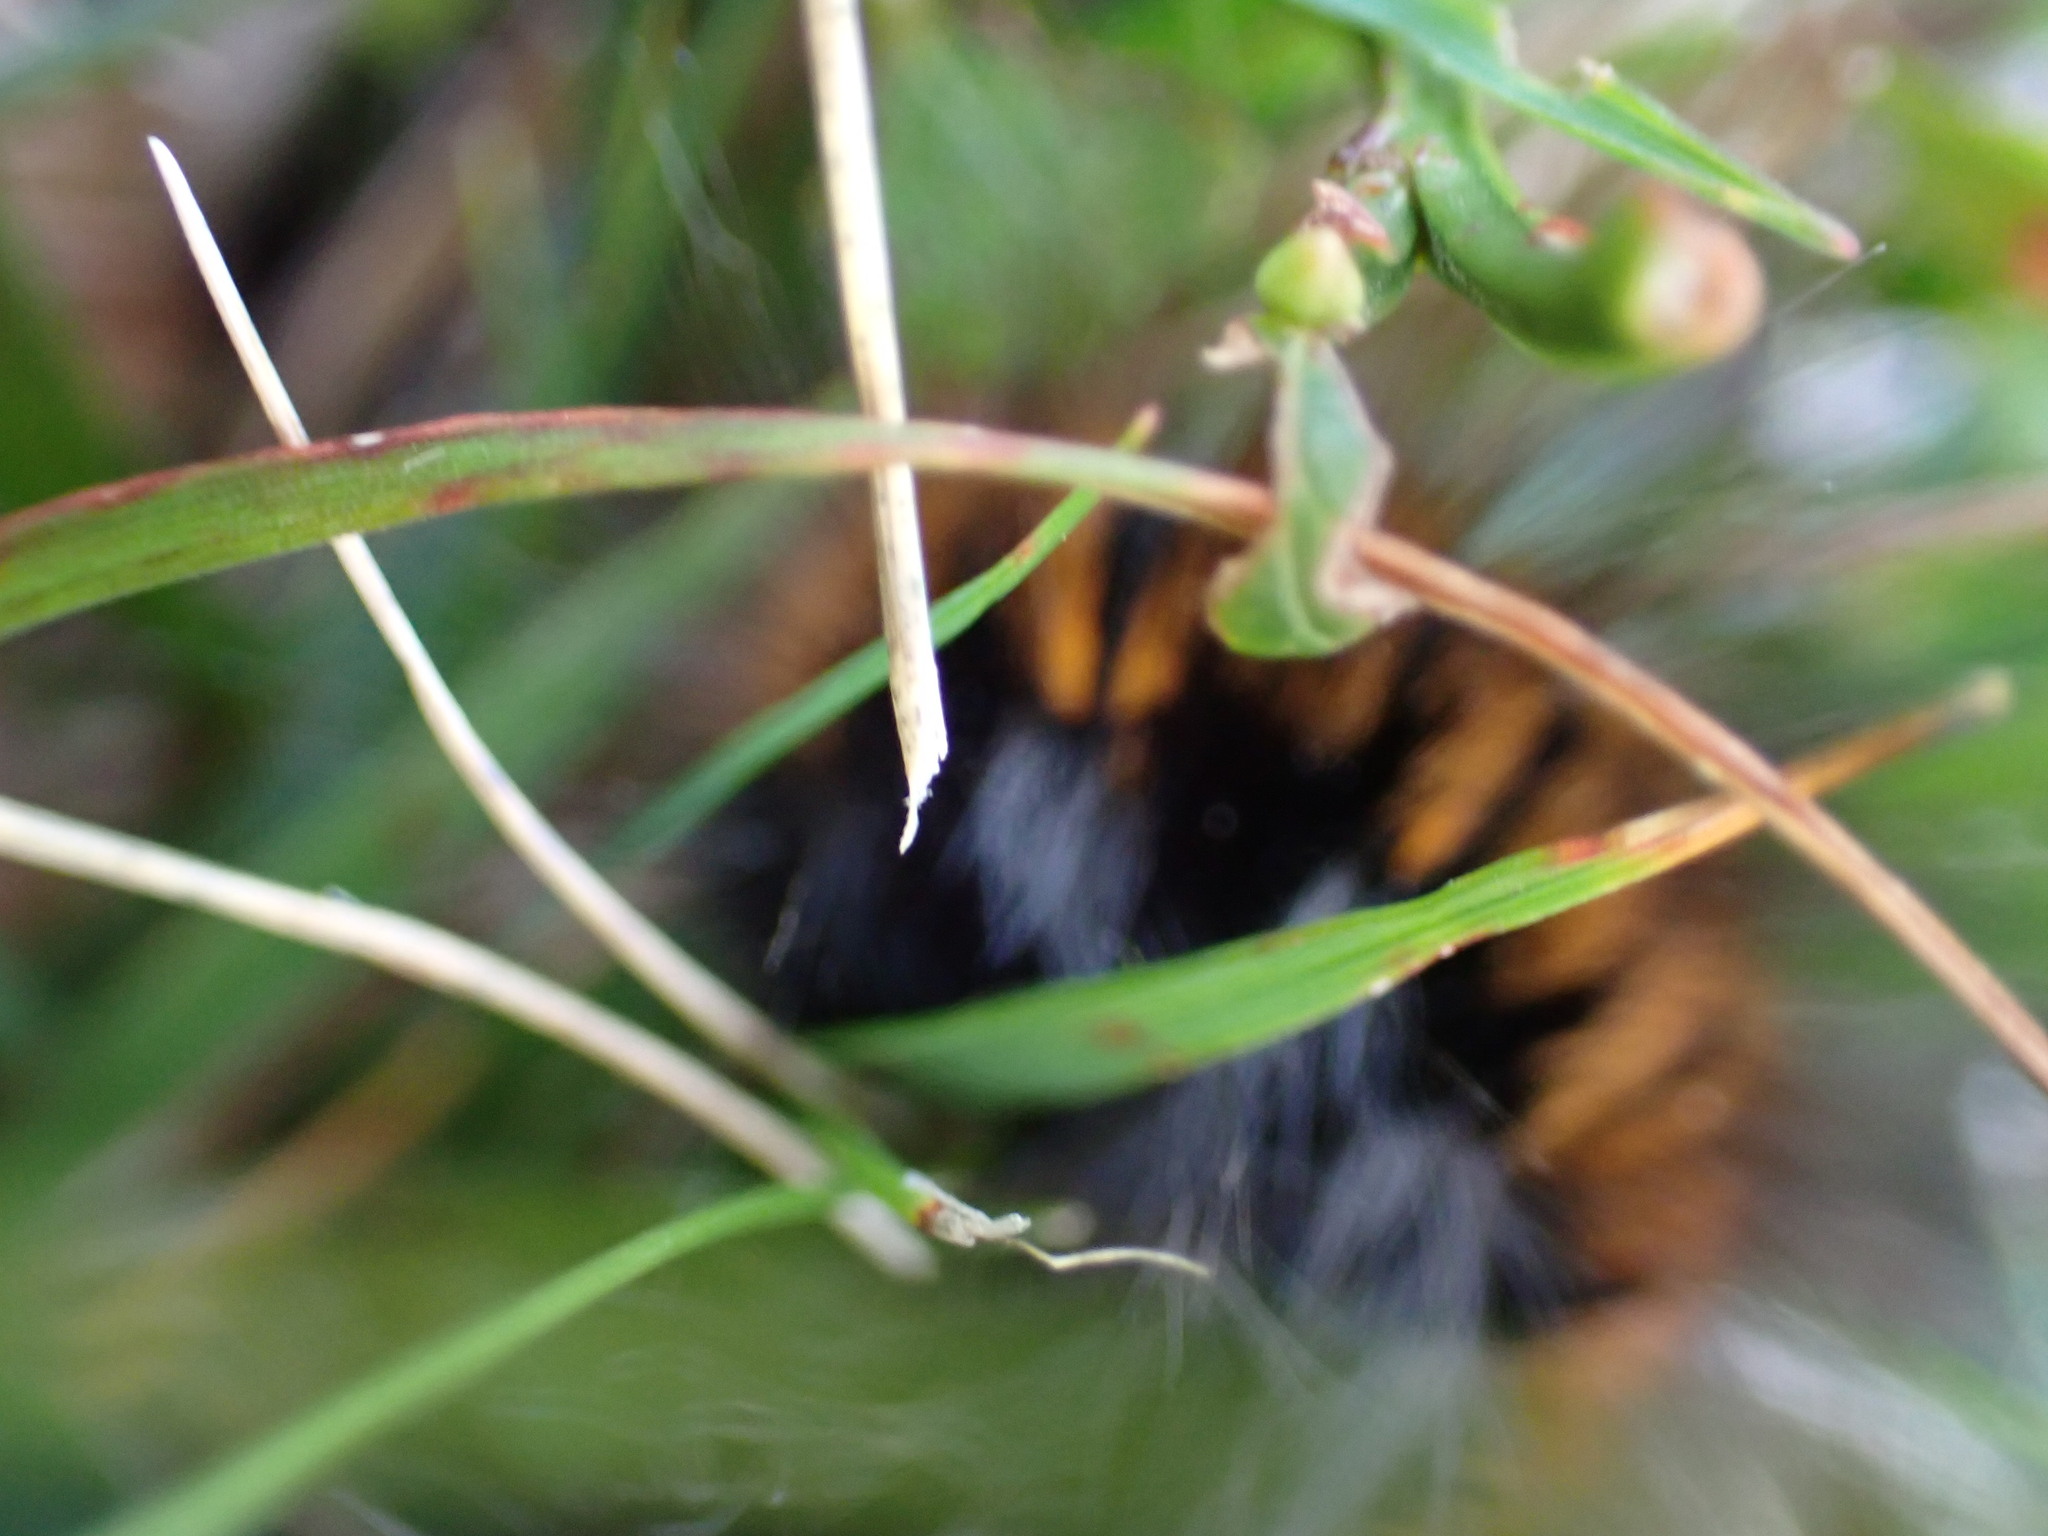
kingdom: Animalia
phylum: Arthropoda
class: Insecta
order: Lepidoptera
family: Lasiocampidae
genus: Macrothylacia
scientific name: Macrothylacia rubi
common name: Fox moth
